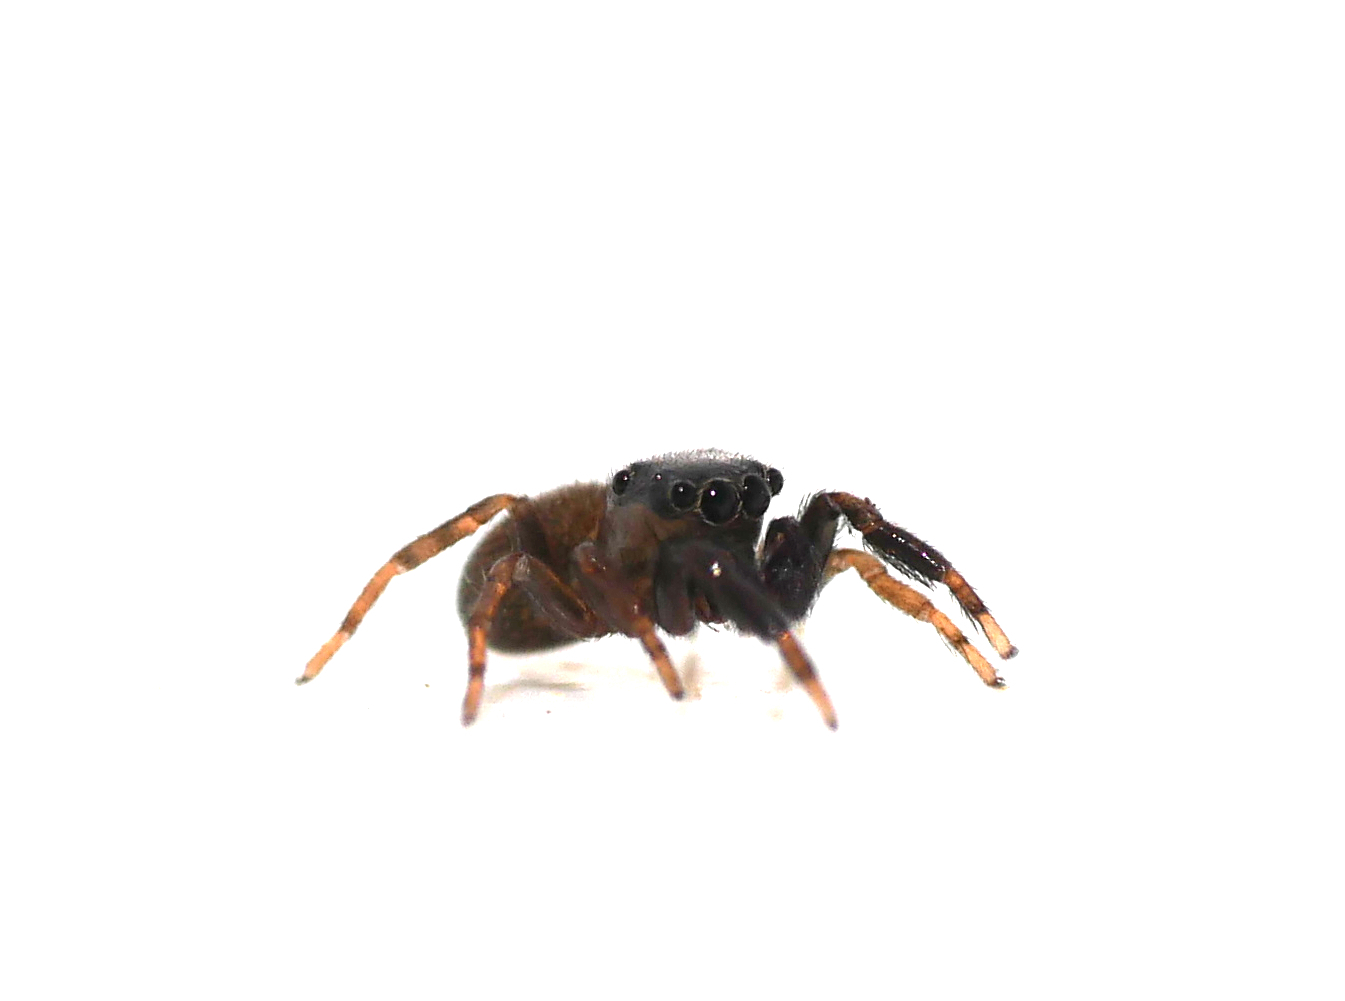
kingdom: Animalia
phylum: Arthropoda
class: Arachnida
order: Araneae
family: Salticidae
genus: Neon
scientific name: Neon reticulatus
